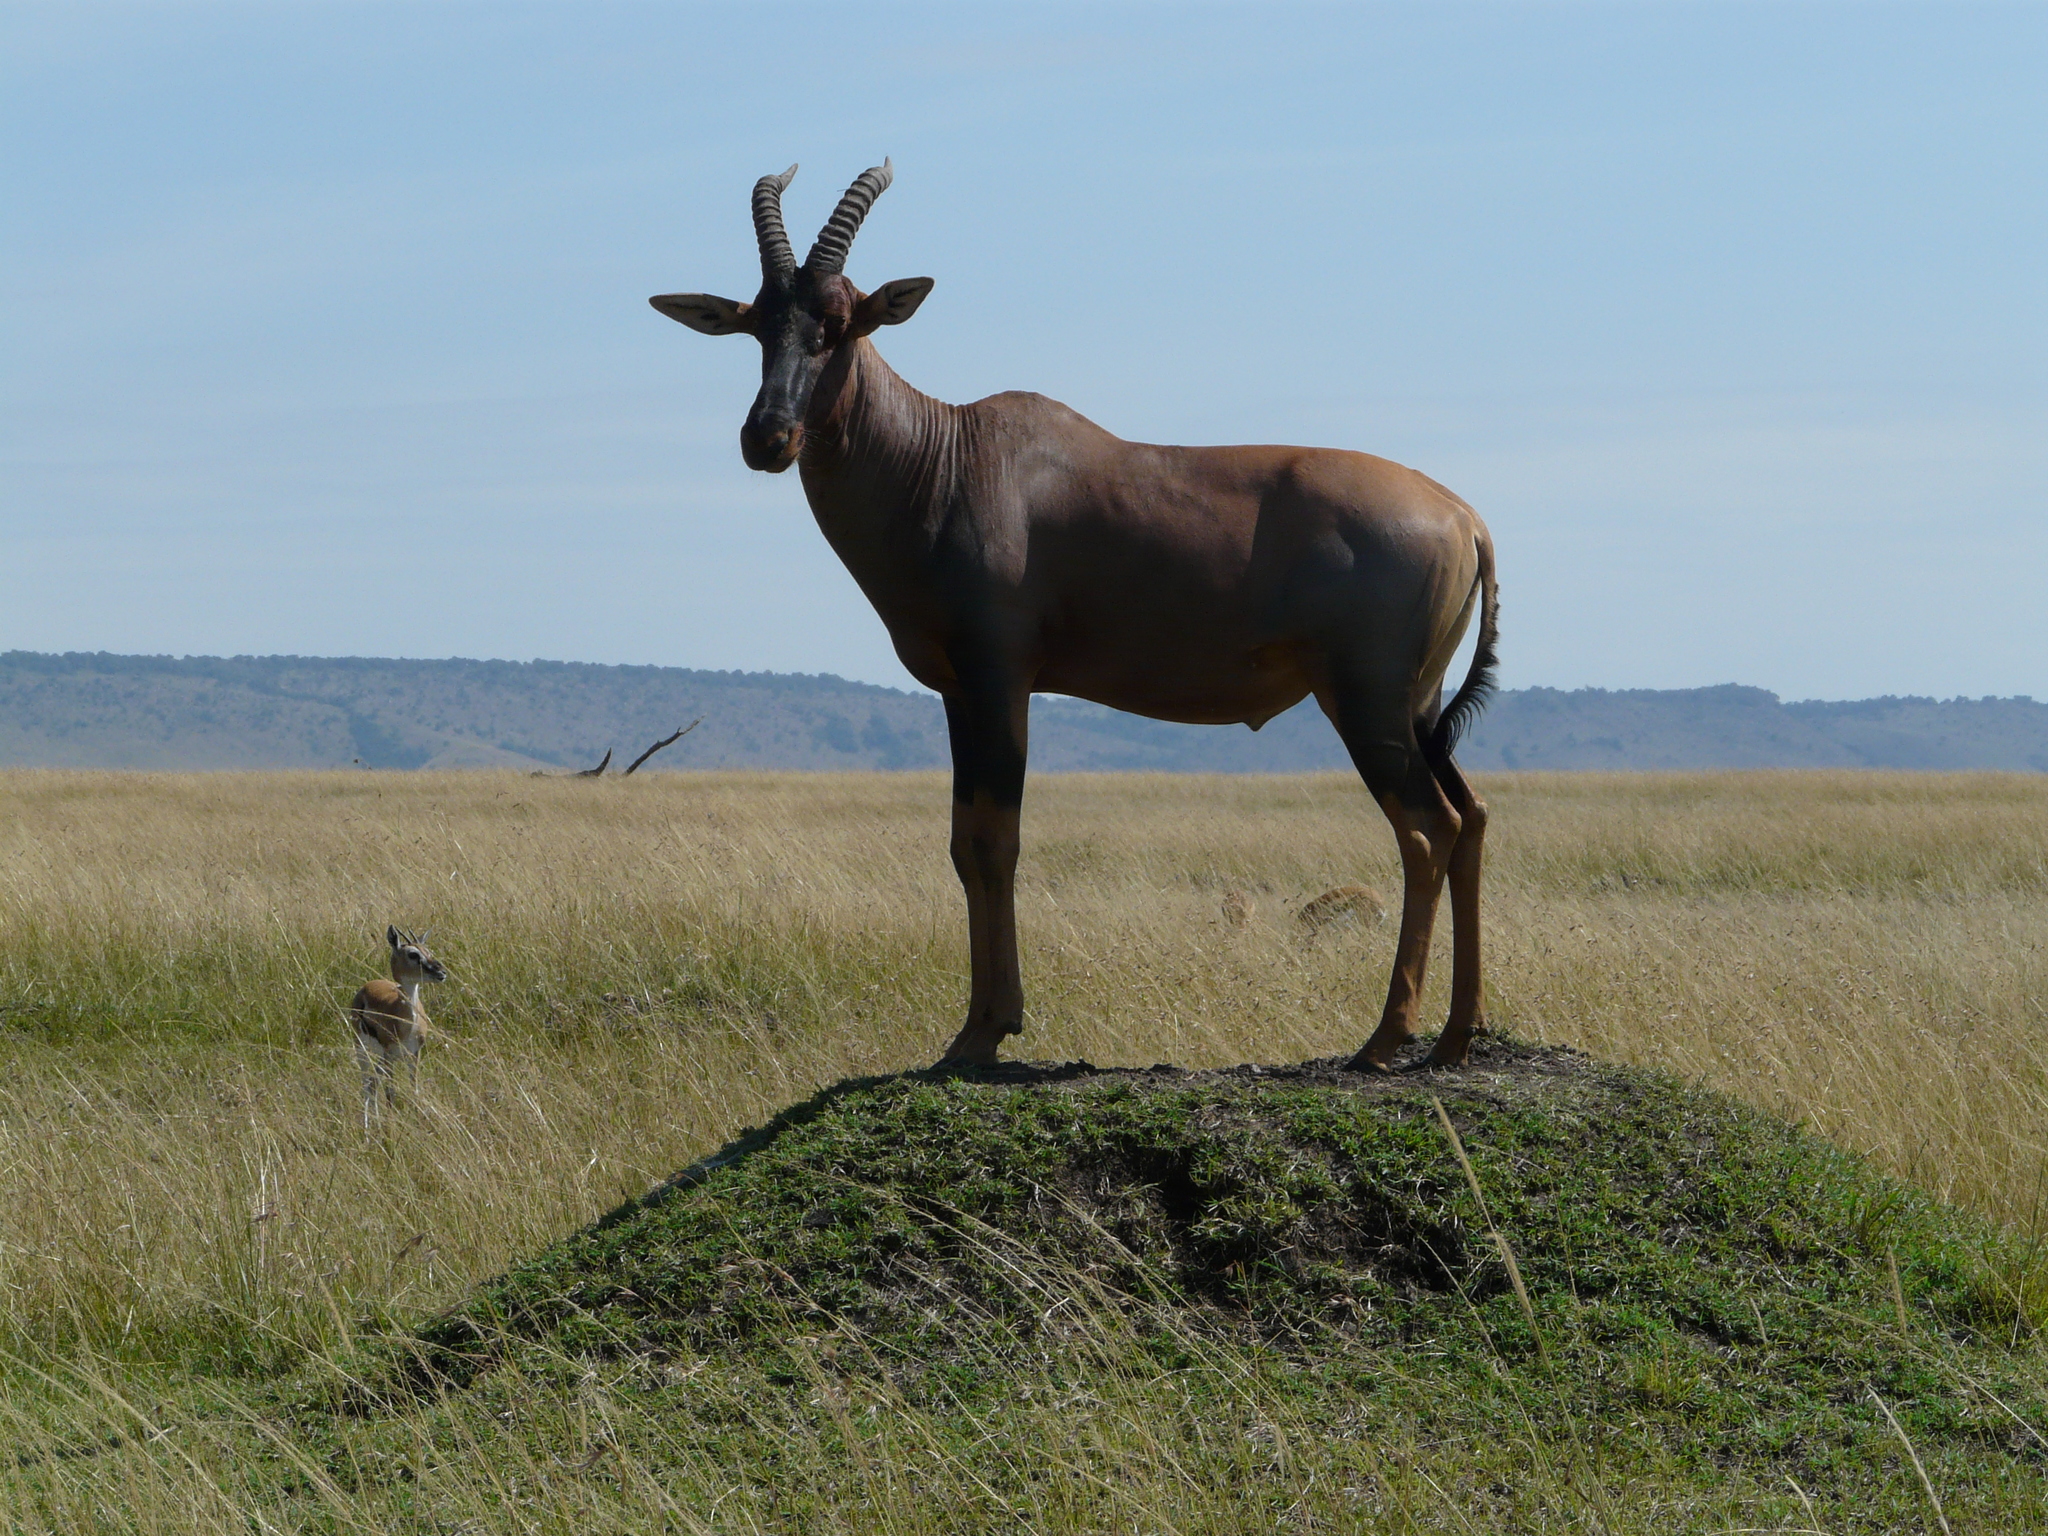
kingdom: Animalia
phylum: Chordata
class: Mammalia
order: Artiodactyla
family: Bovidae
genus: Damaliscus
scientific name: Damaliscus korrigum
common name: Topi
